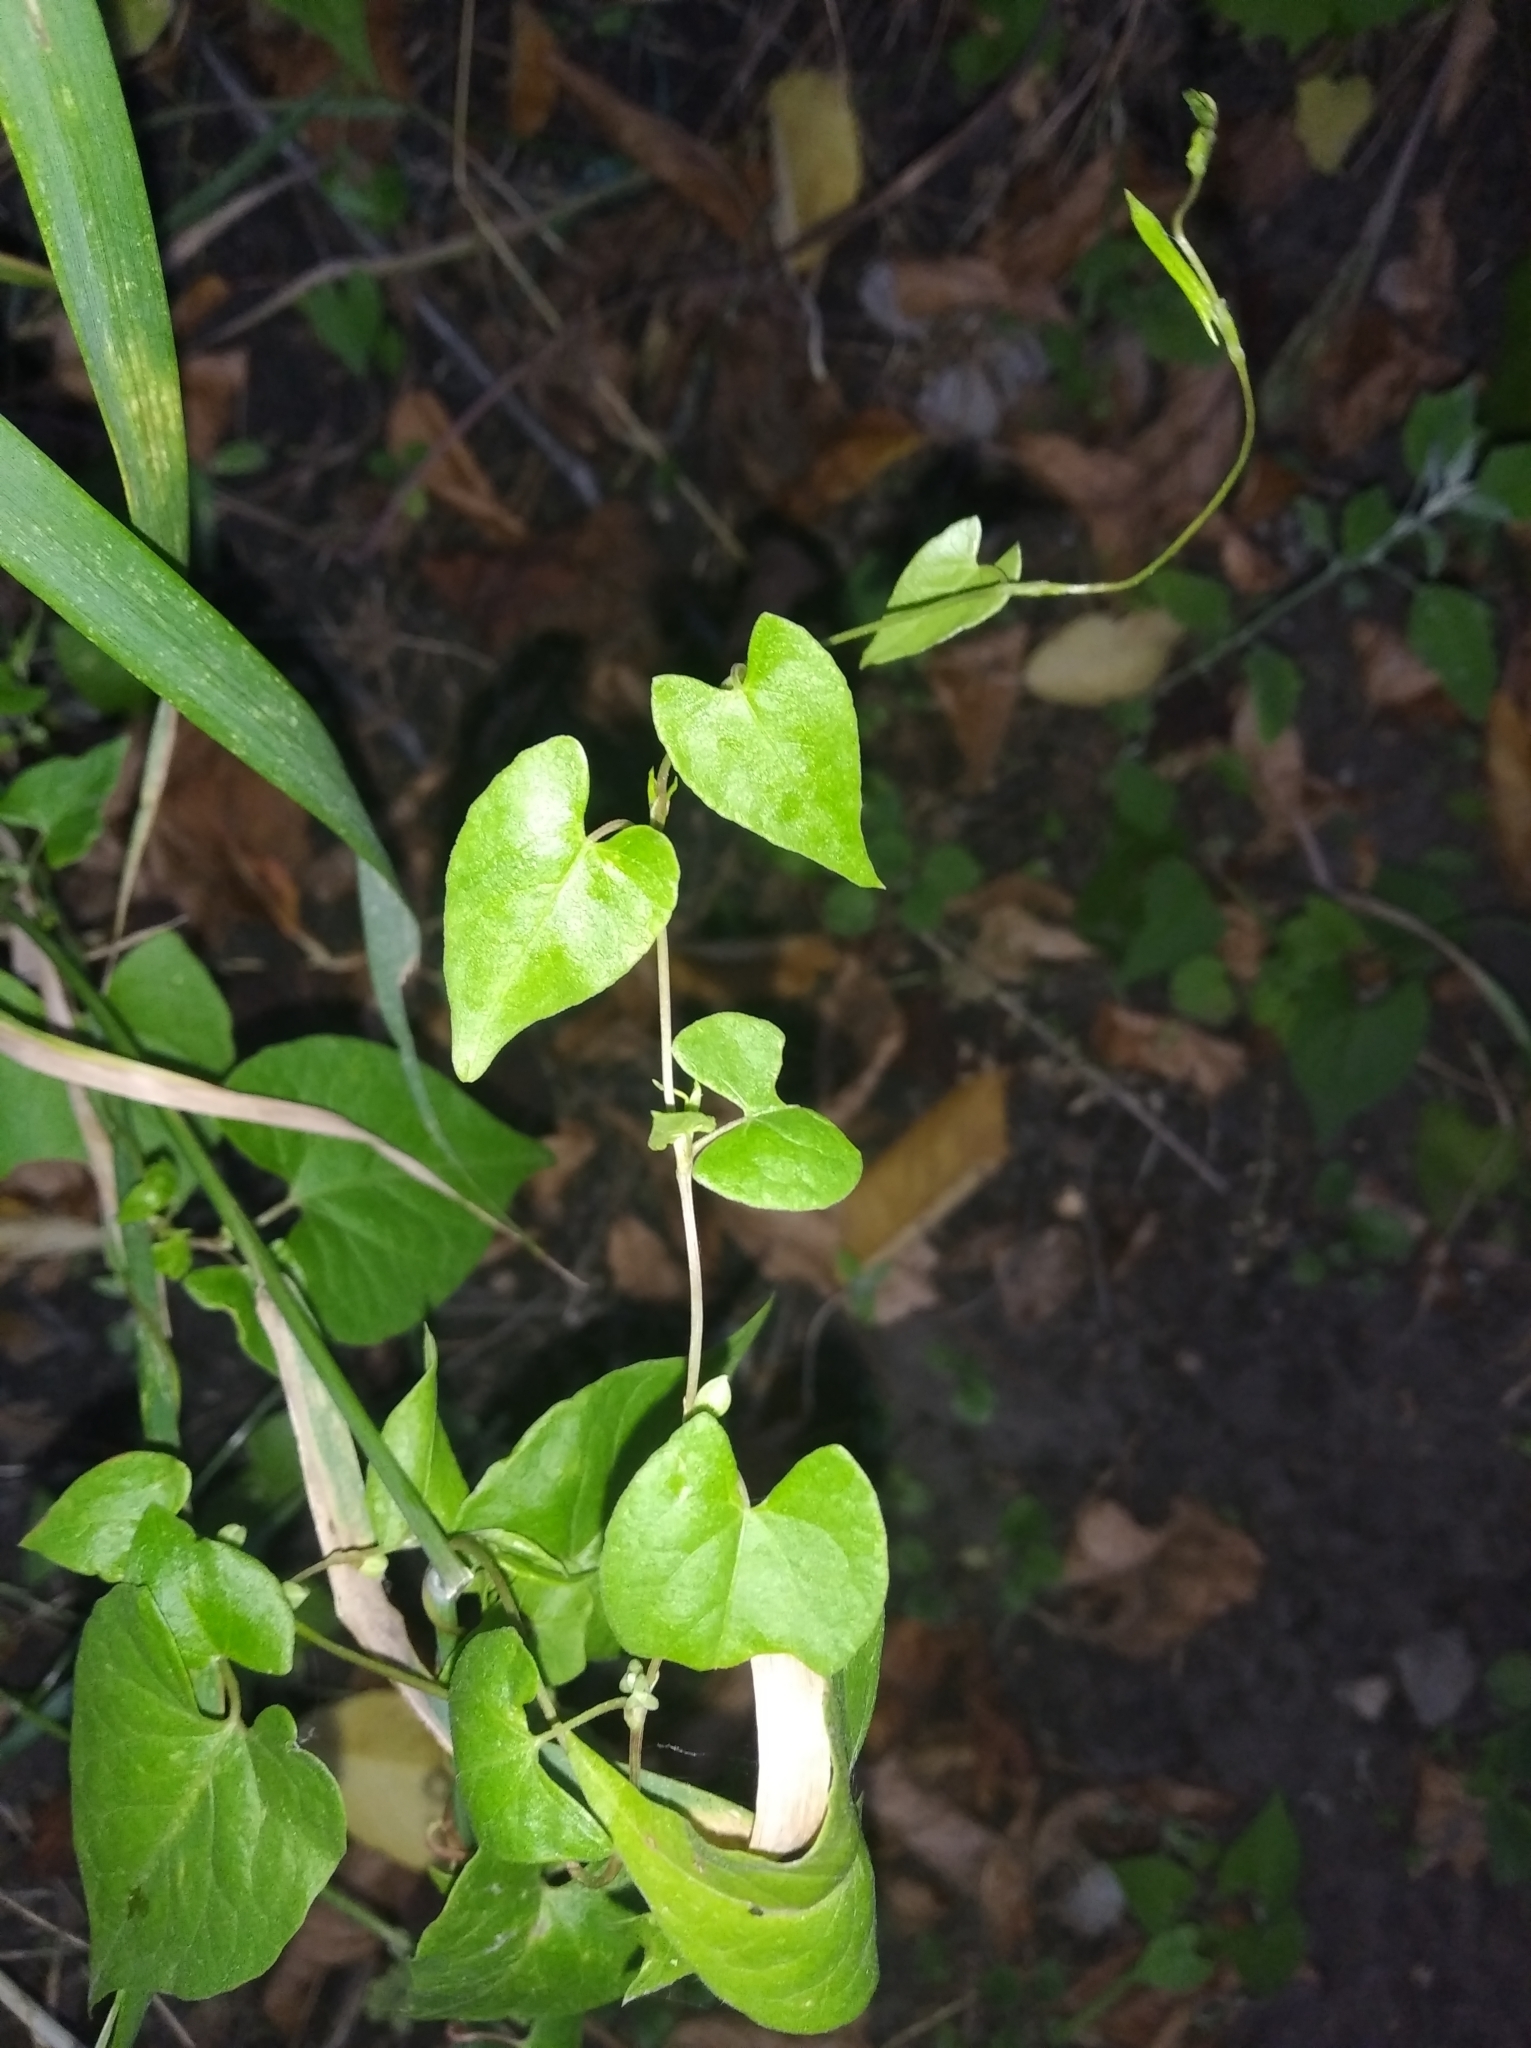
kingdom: Plantae
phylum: Tracheophyta
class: Magnoliopsida
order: Caryophyllales
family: Polygonaceae
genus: Fallopia
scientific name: Fallopia convolvulus
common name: Black bindweed
